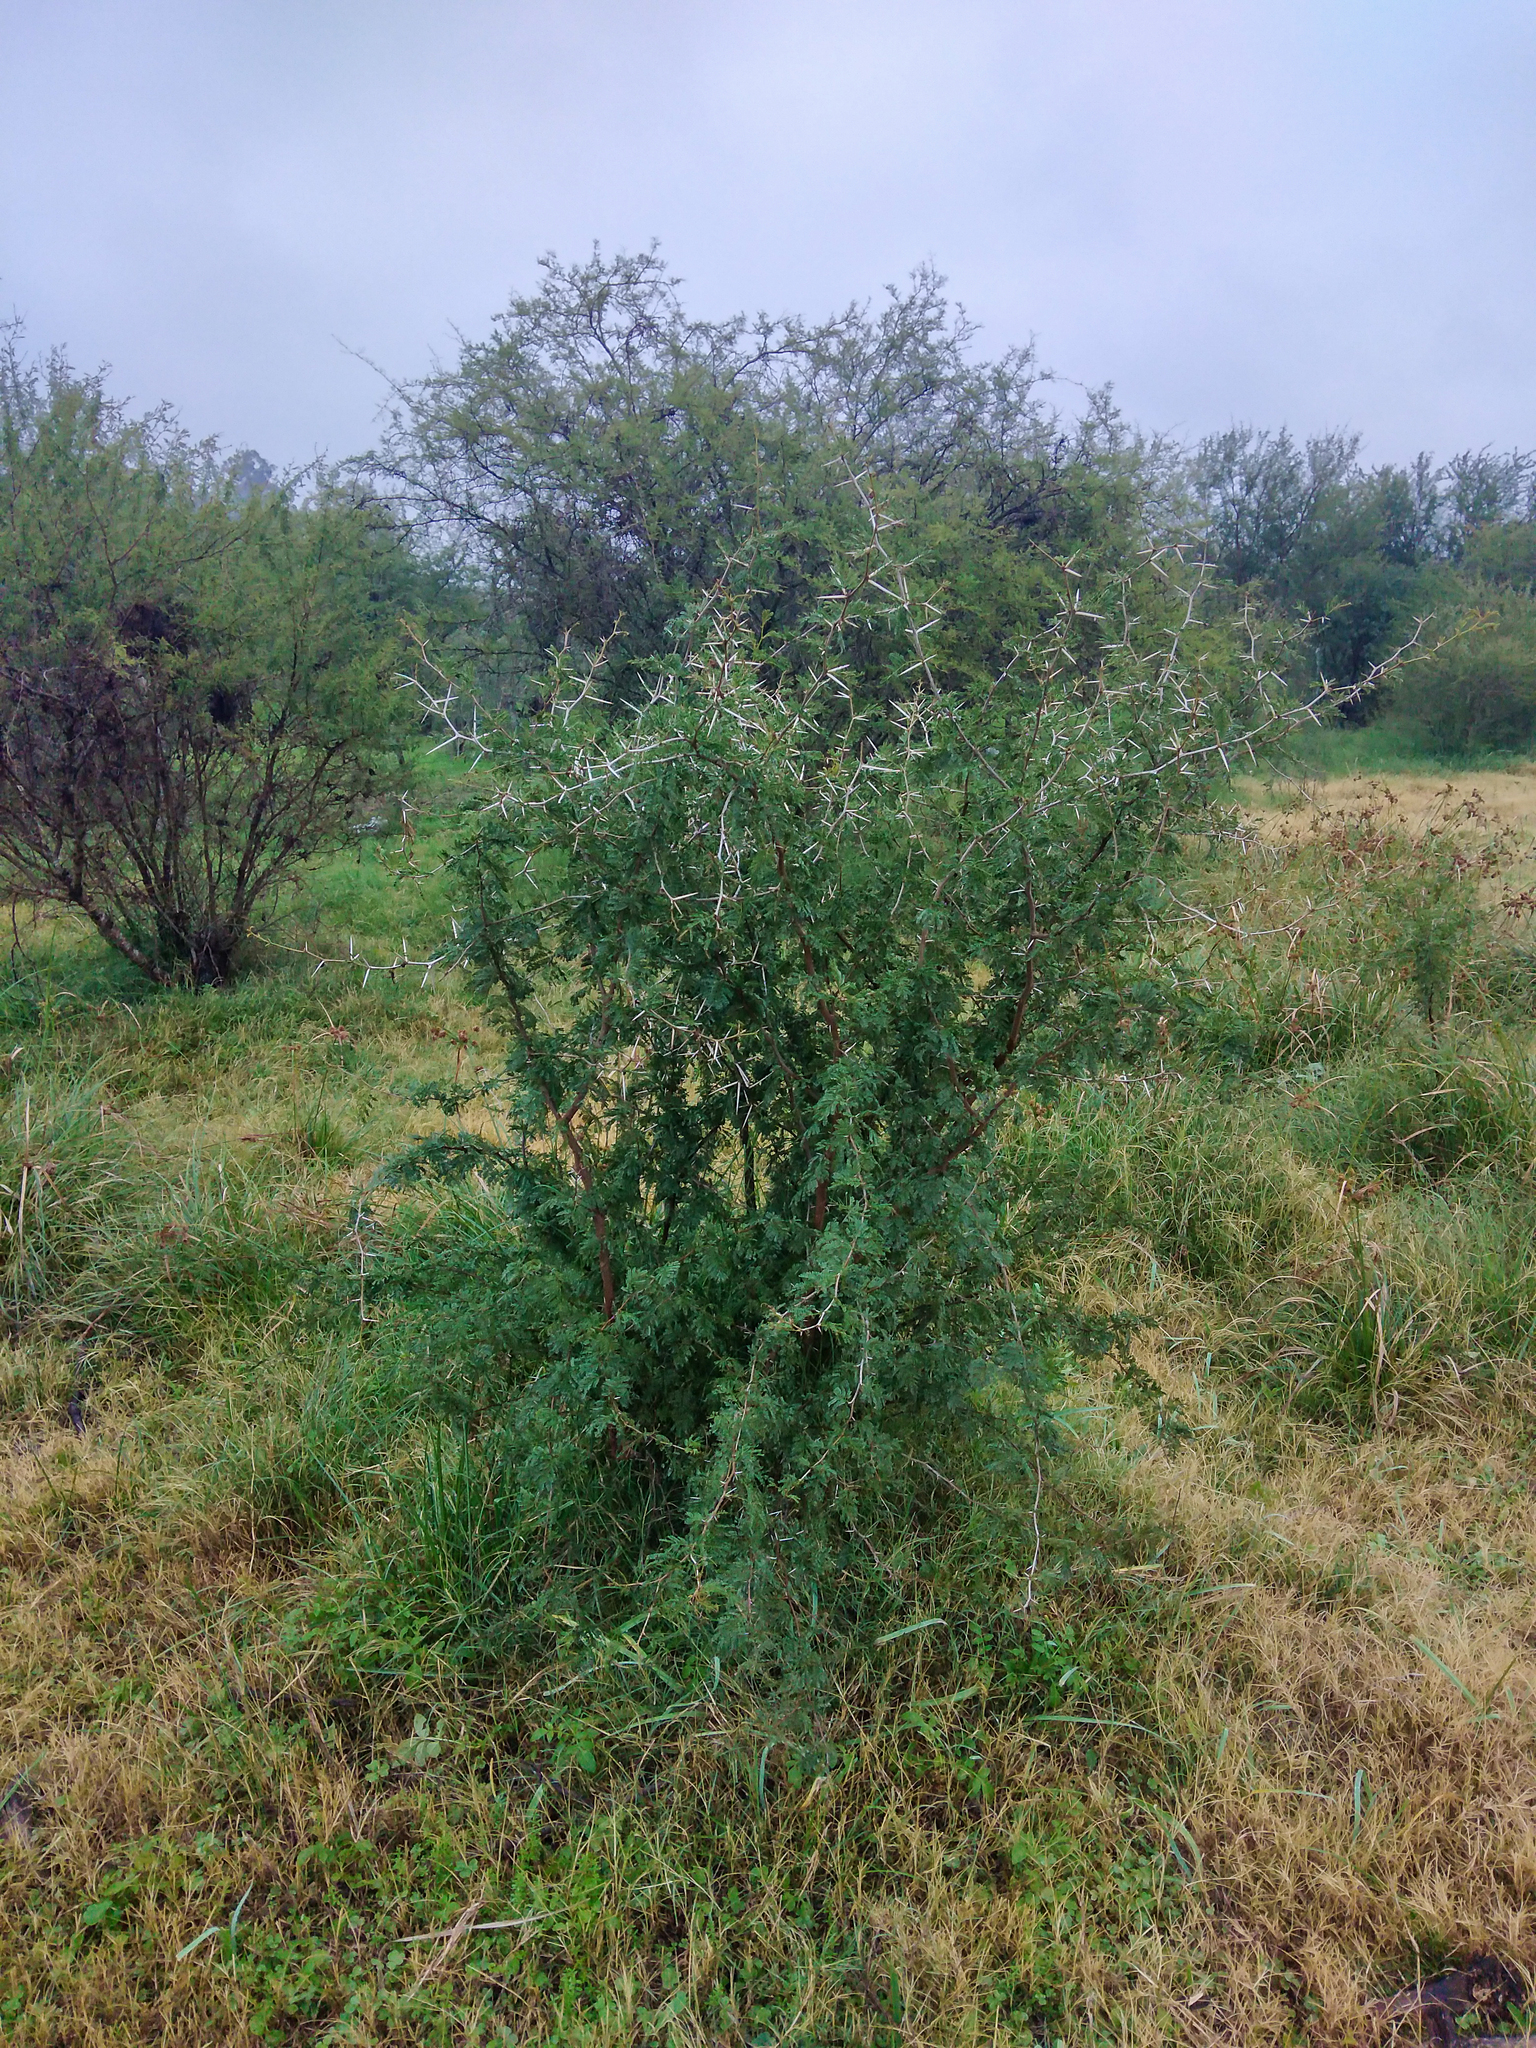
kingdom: Plantae
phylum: Tracheophyta
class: Magnoliopsida
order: Fabales
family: Fabaceae
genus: Vachellia
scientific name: Vachellia caven
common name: Roman cassie
